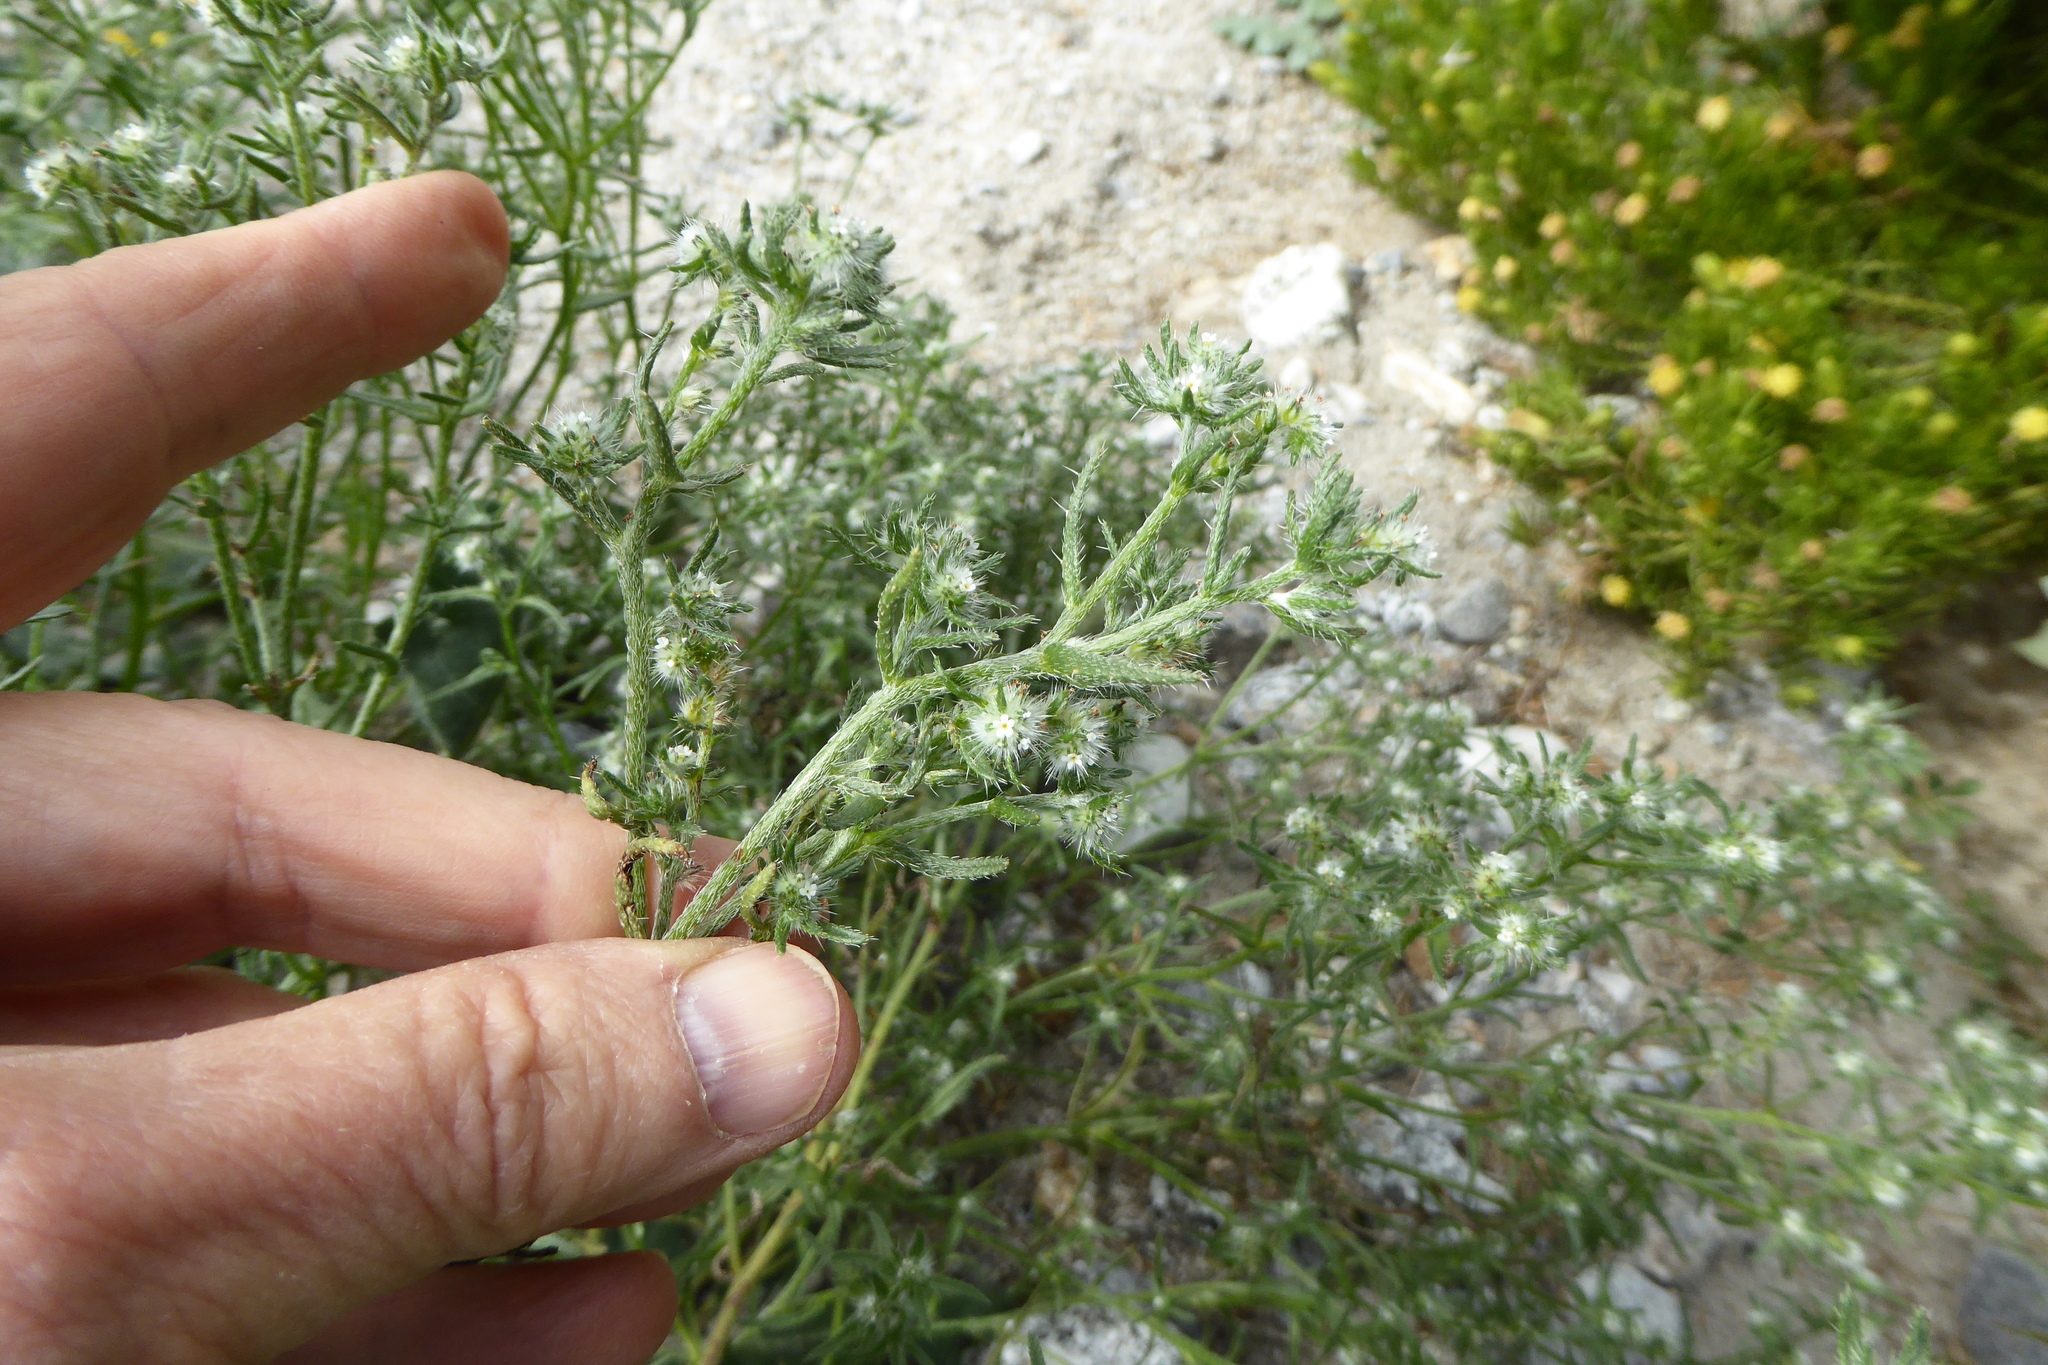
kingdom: Plantae
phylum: Tracheophyta
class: Magnoliopsida
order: Boraginales
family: Boraginaceae
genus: Cryptantha
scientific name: Cryptantha maritima
